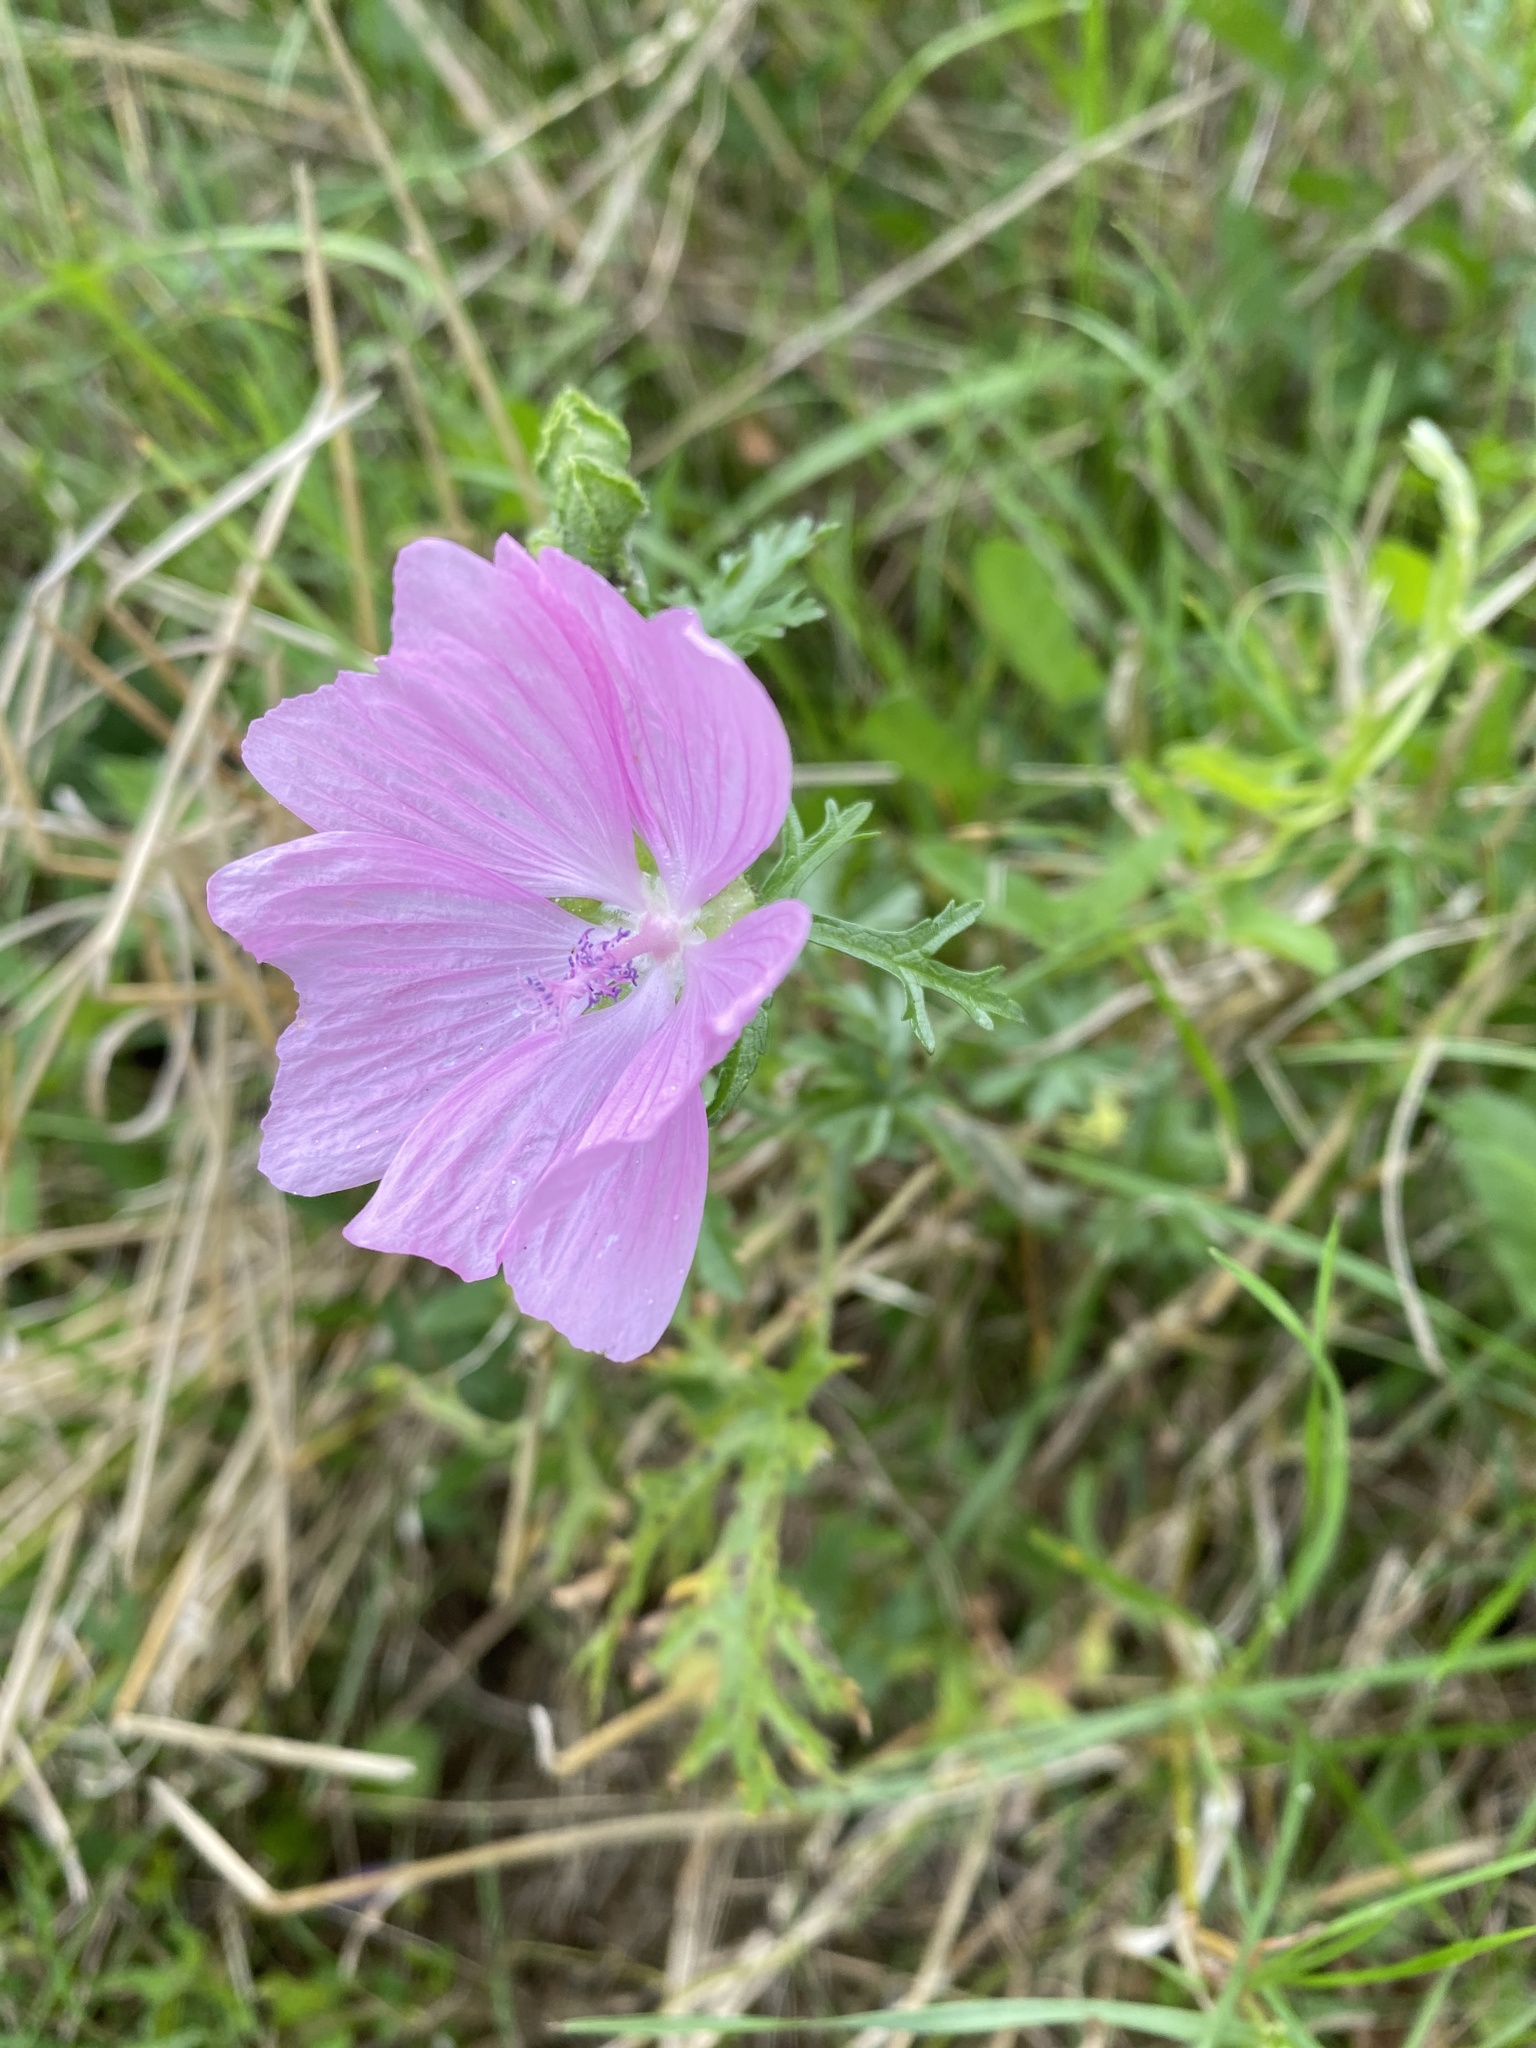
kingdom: Plantae
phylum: Tracheophyta
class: Magnoliopsida
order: Malvales
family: Malvaceae
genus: Malva
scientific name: Malva moschata
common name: Musk mallow
